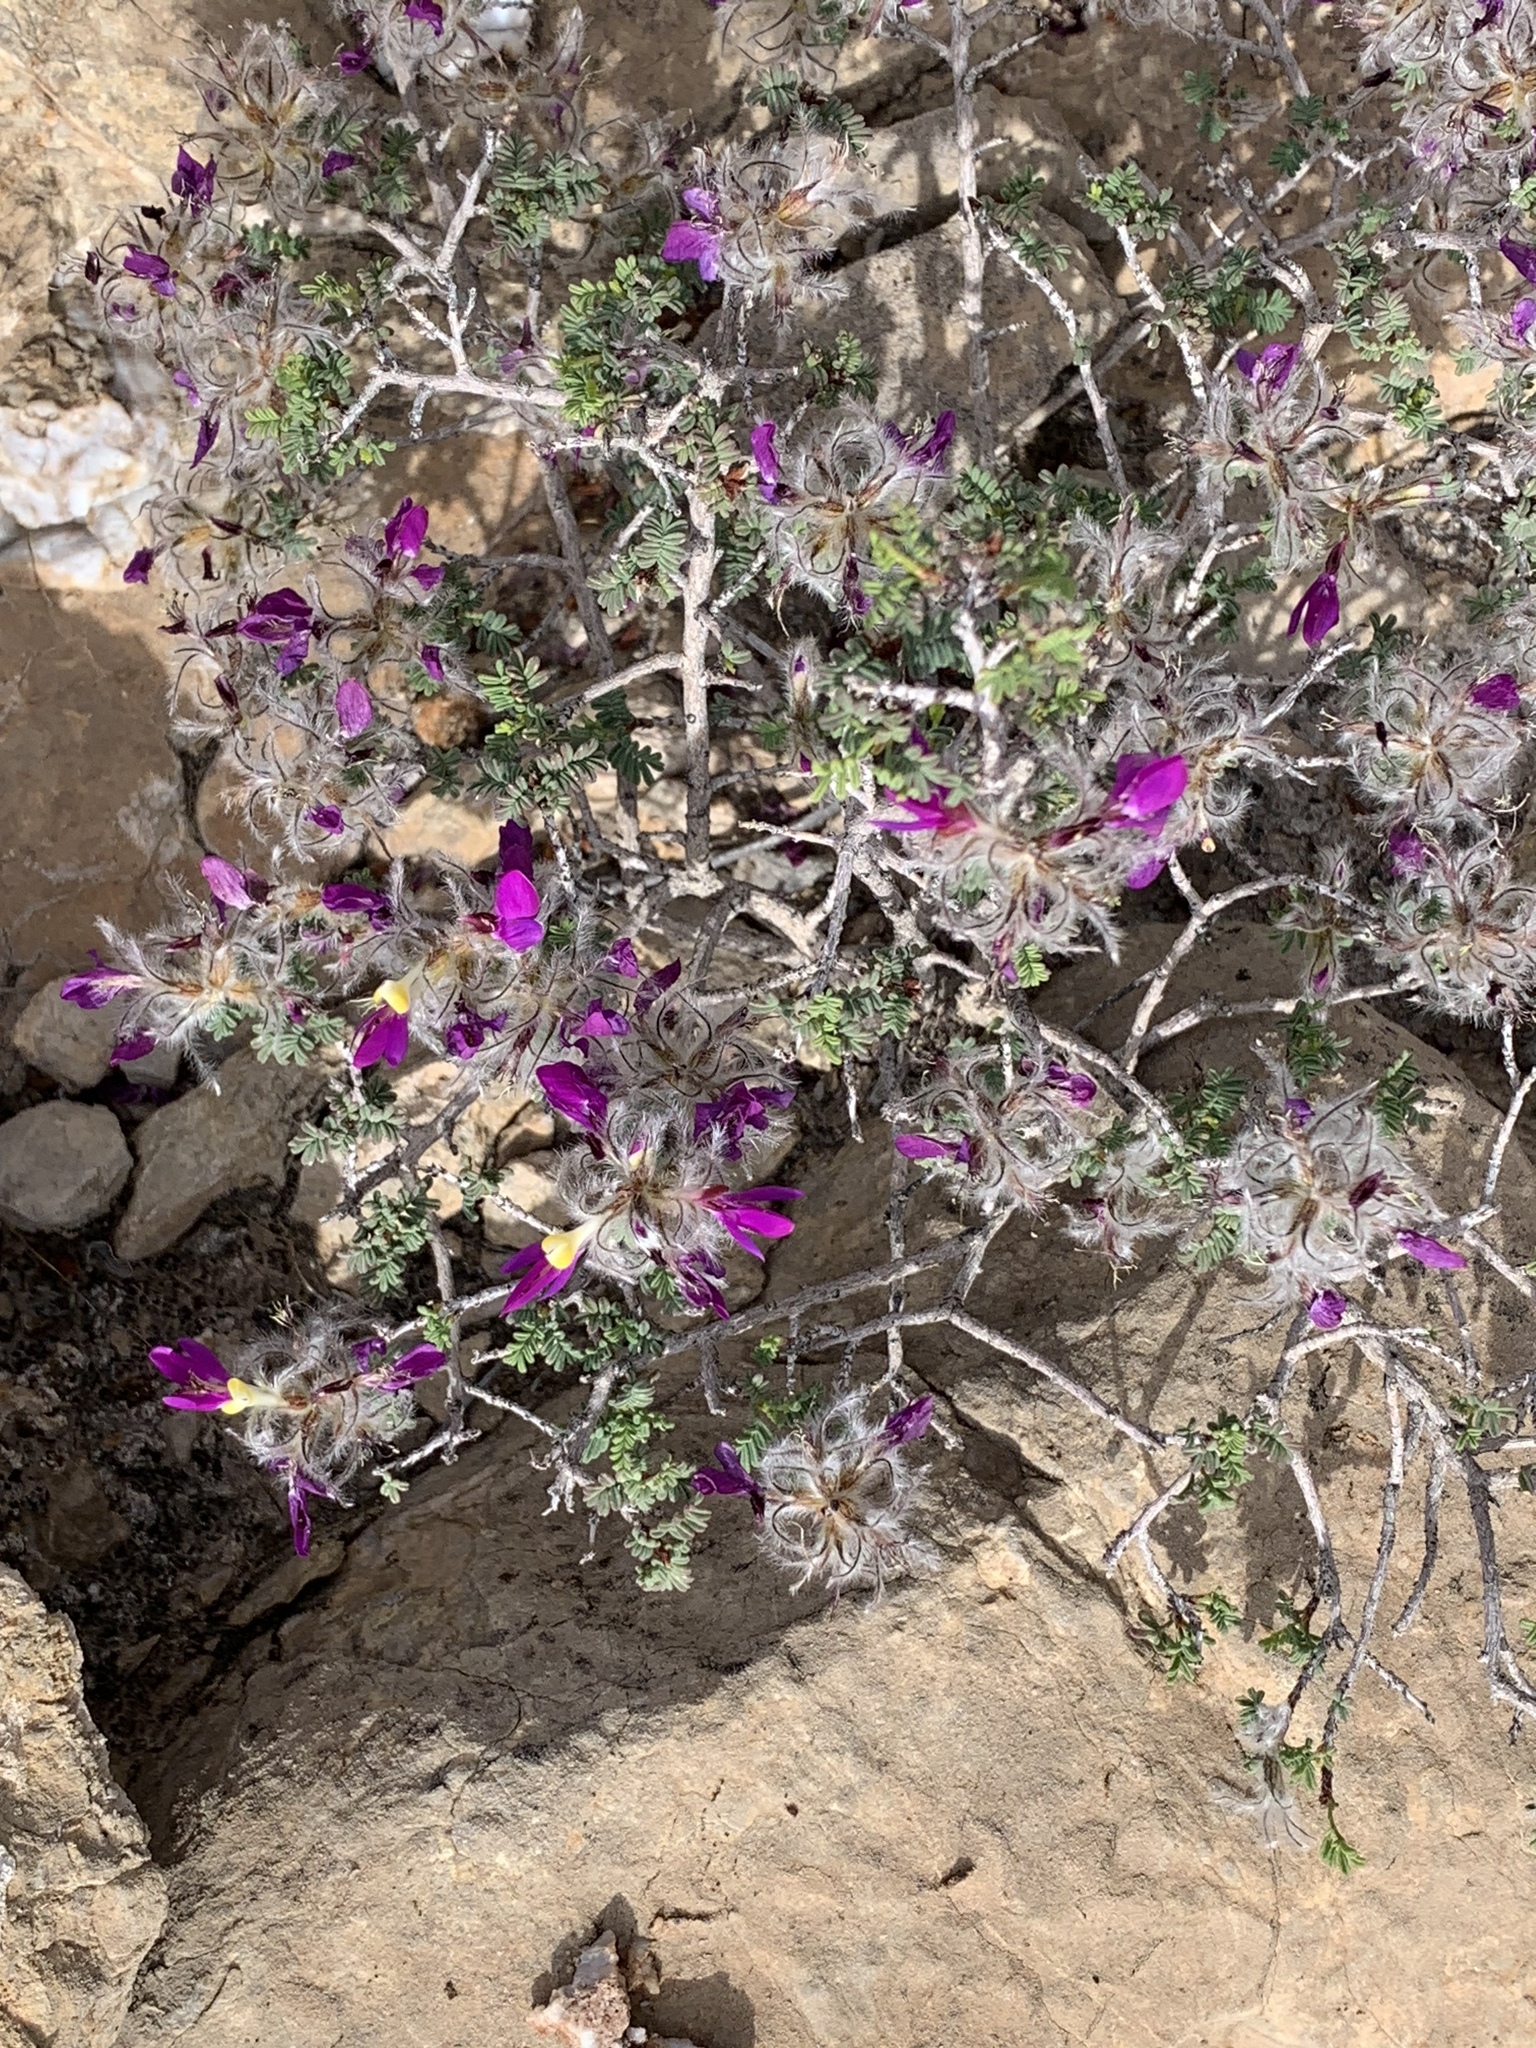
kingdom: Plantae
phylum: Tracheophyta
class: Magnoliopsida
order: Fabales
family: Fabaceae
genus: Dalea
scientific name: Dalea formosa
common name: Feather-plume dalea
